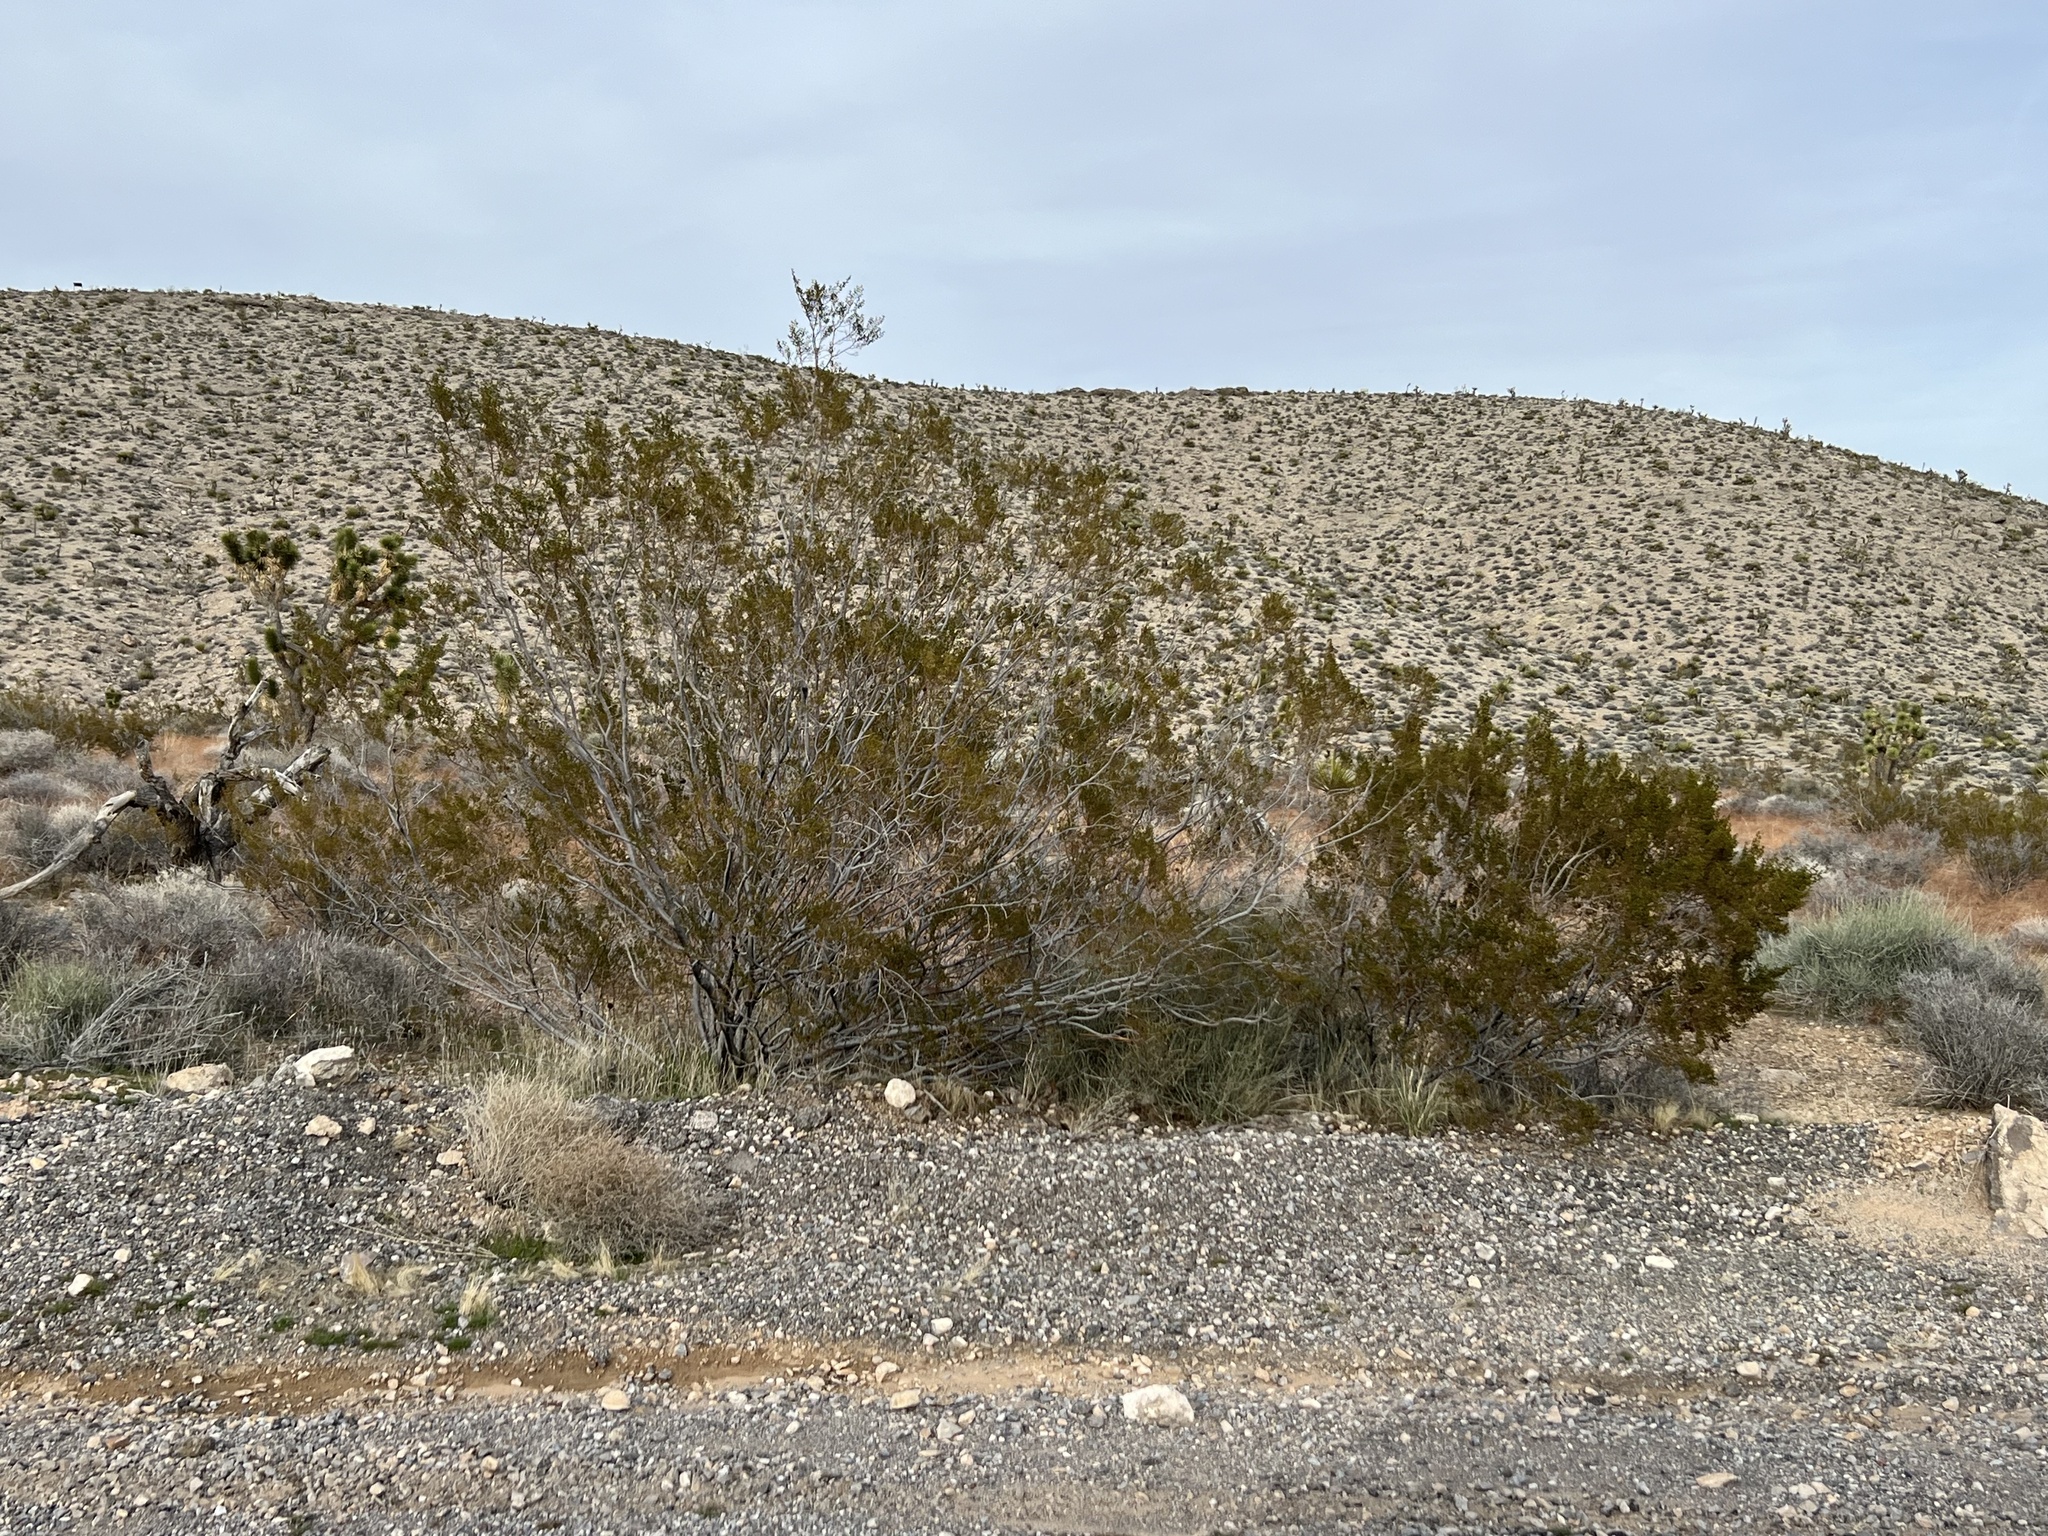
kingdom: Plantae
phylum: Tracheophyta
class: Magnoliopsida
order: Zygophyllales
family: Zygophyllaceae
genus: Larrea
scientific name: Larrea tridentata
